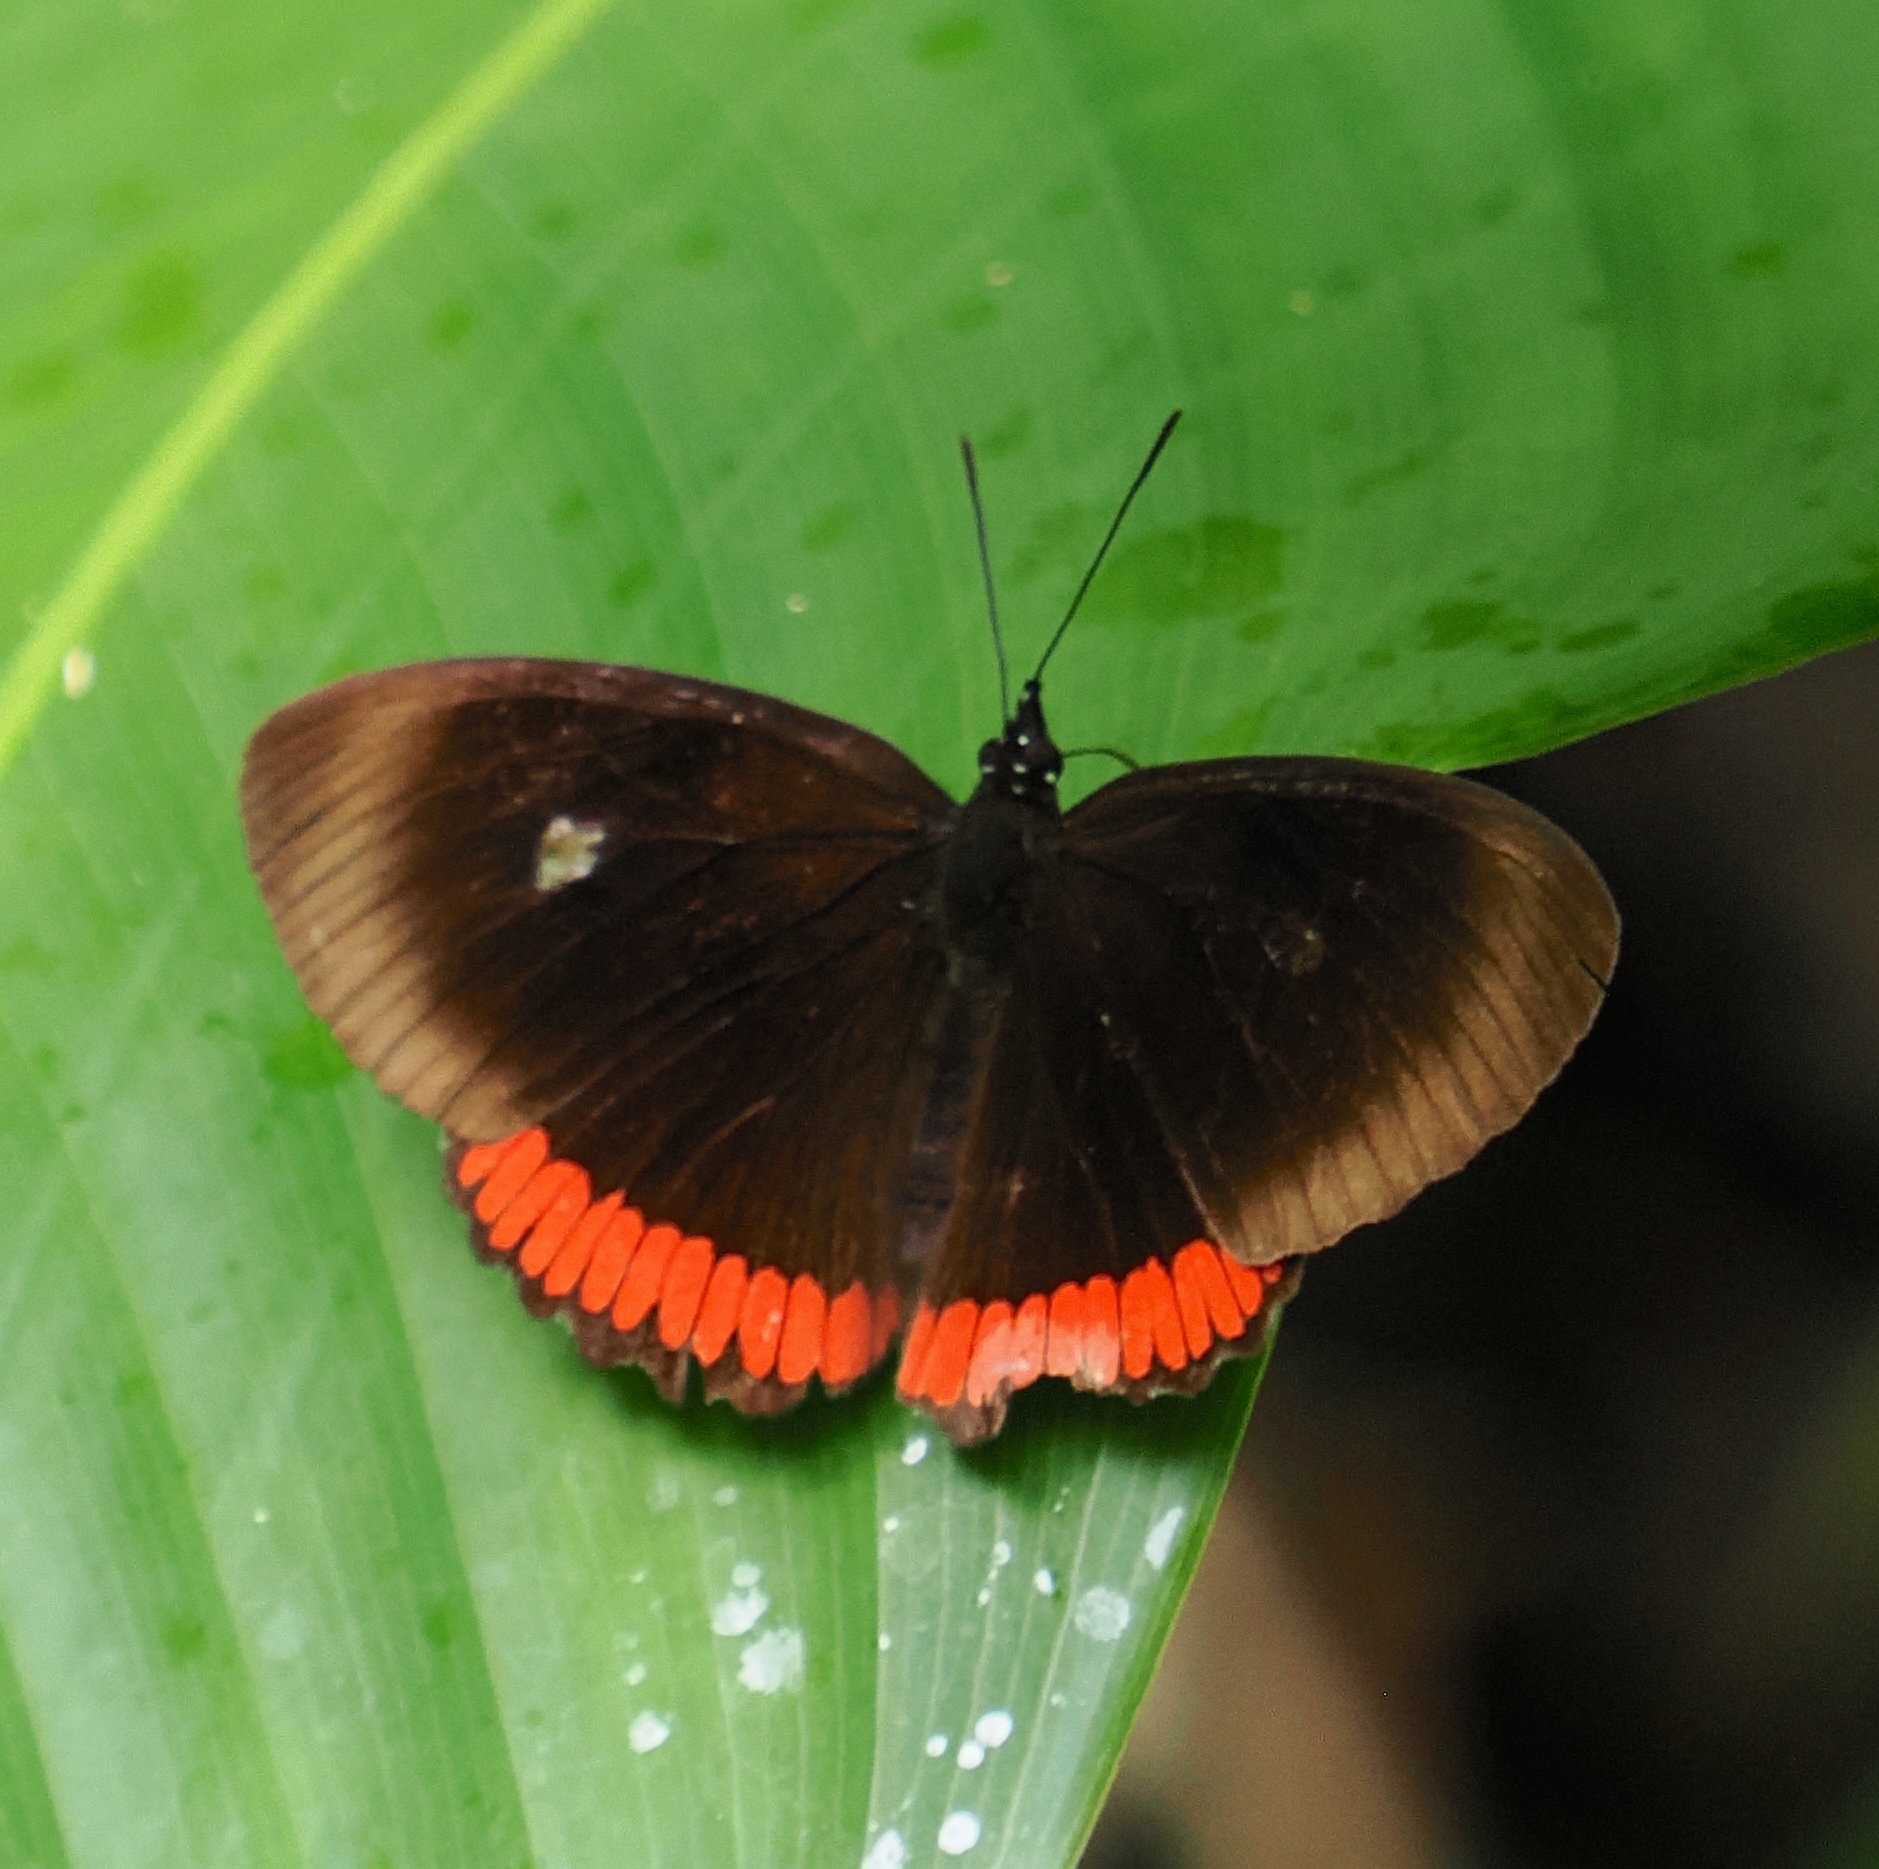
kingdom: Animalia
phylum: Arthropoda
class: Insecta
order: Lepidoptera
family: Sesiidae
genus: Sesia
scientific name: Sesia Biblis hyperia
